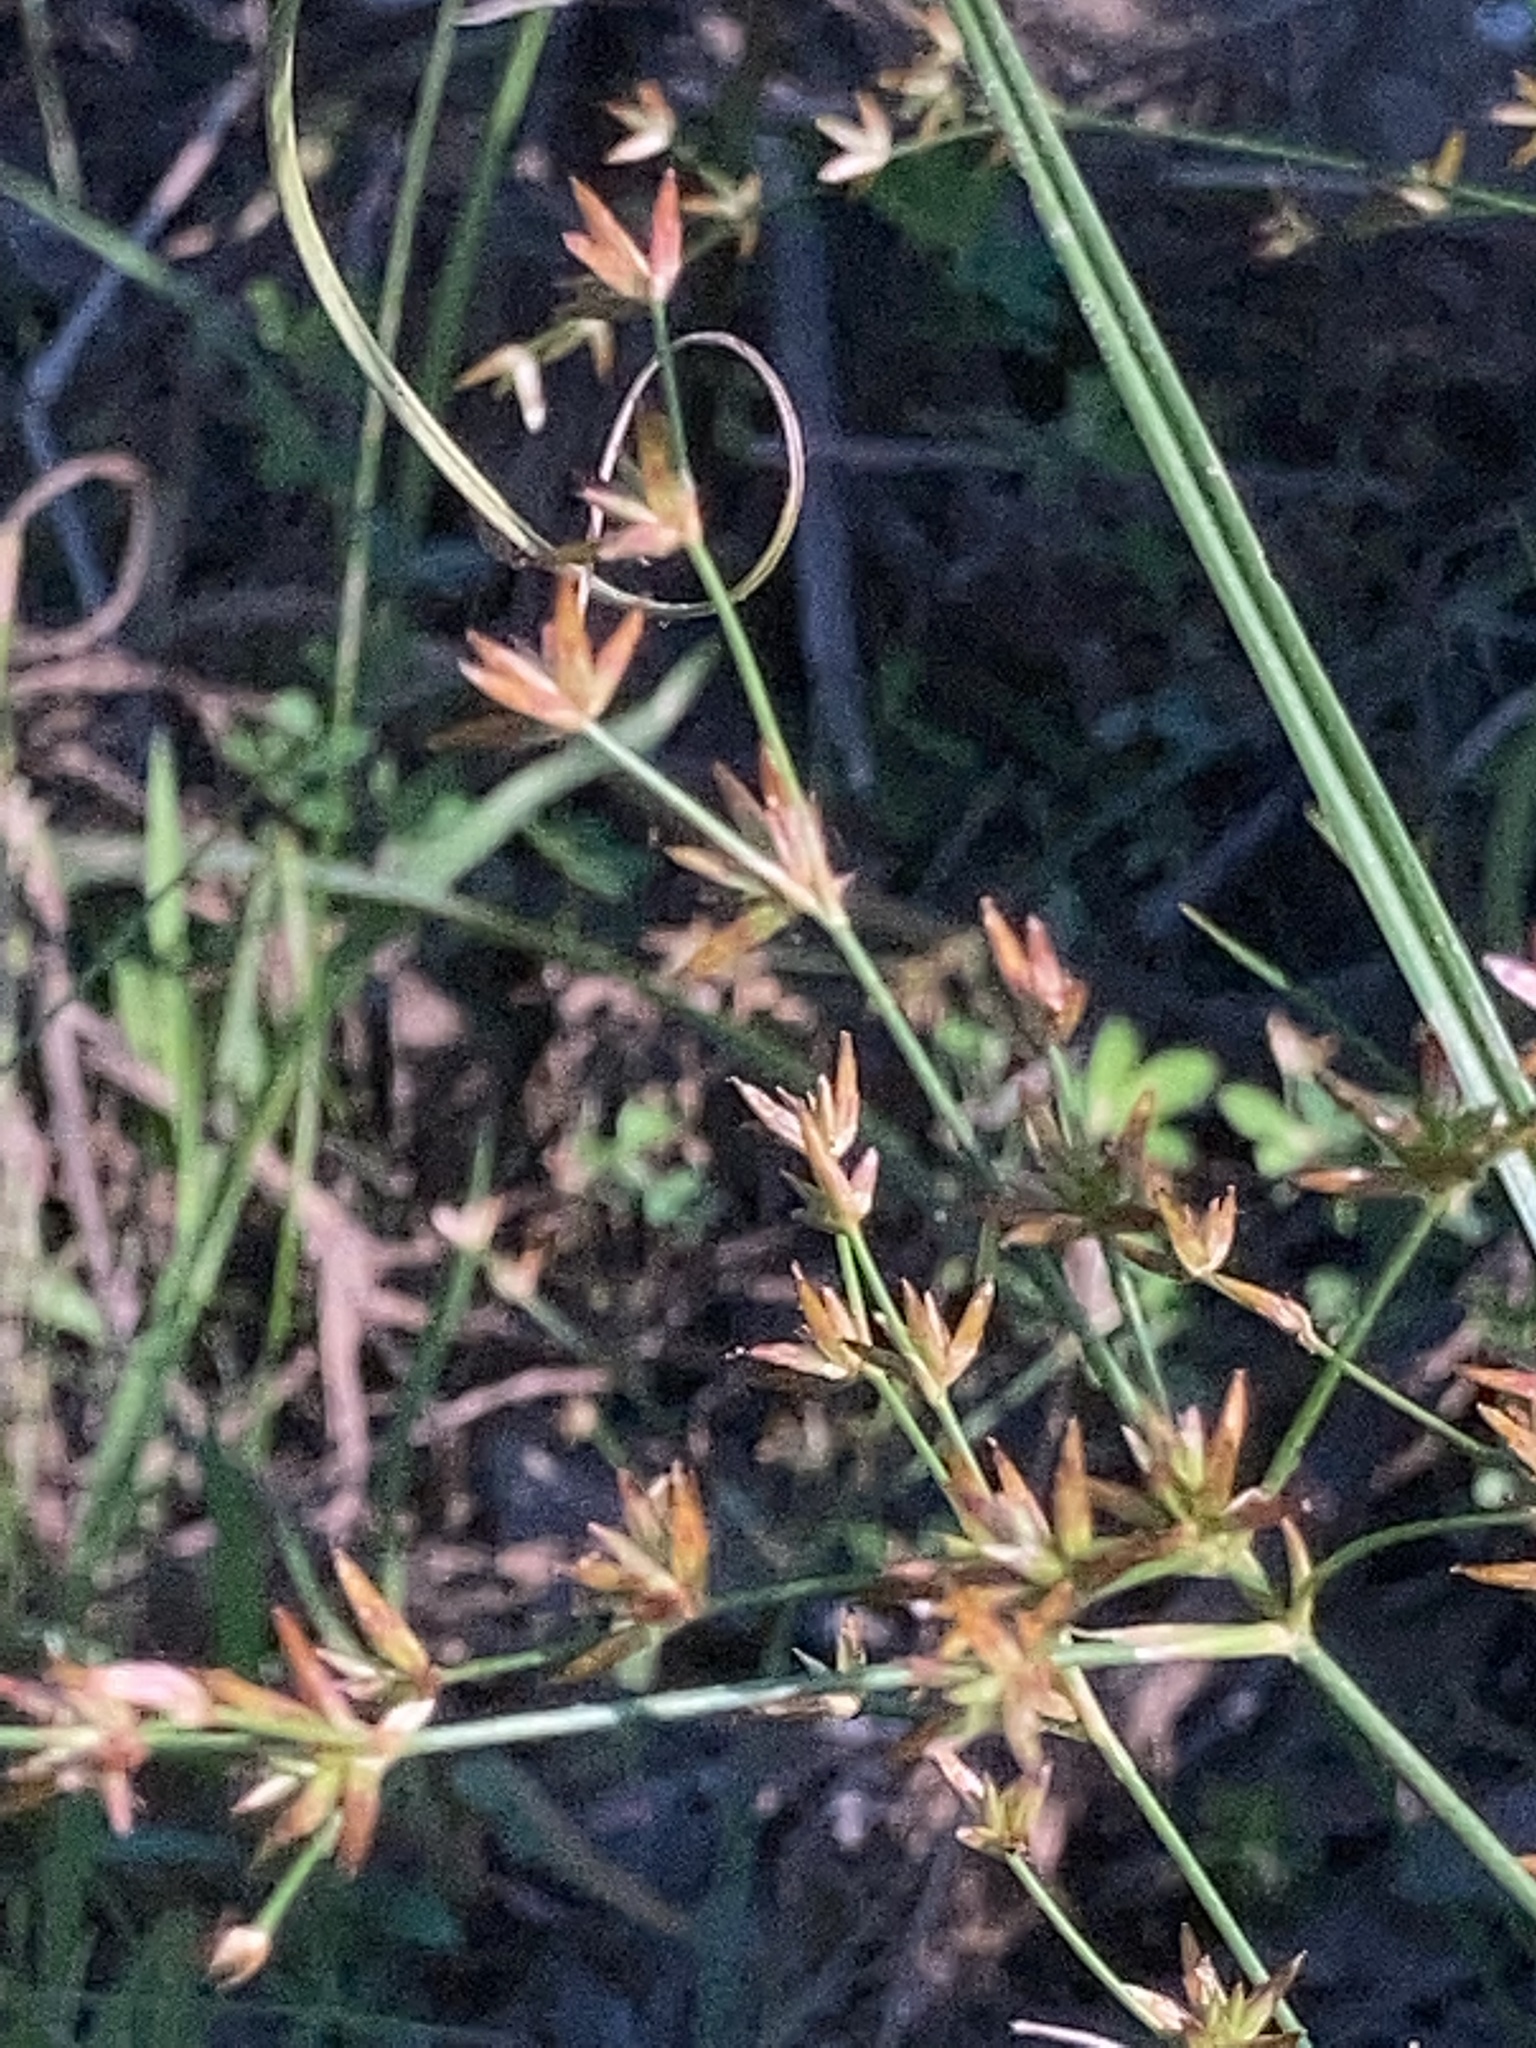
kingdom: Plantae
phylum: Tracheophyta
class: Liliopsida
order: Poales
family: Juncaceae
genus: Juncus
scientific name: Juncus diffusissimus
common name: Slimpod rush
